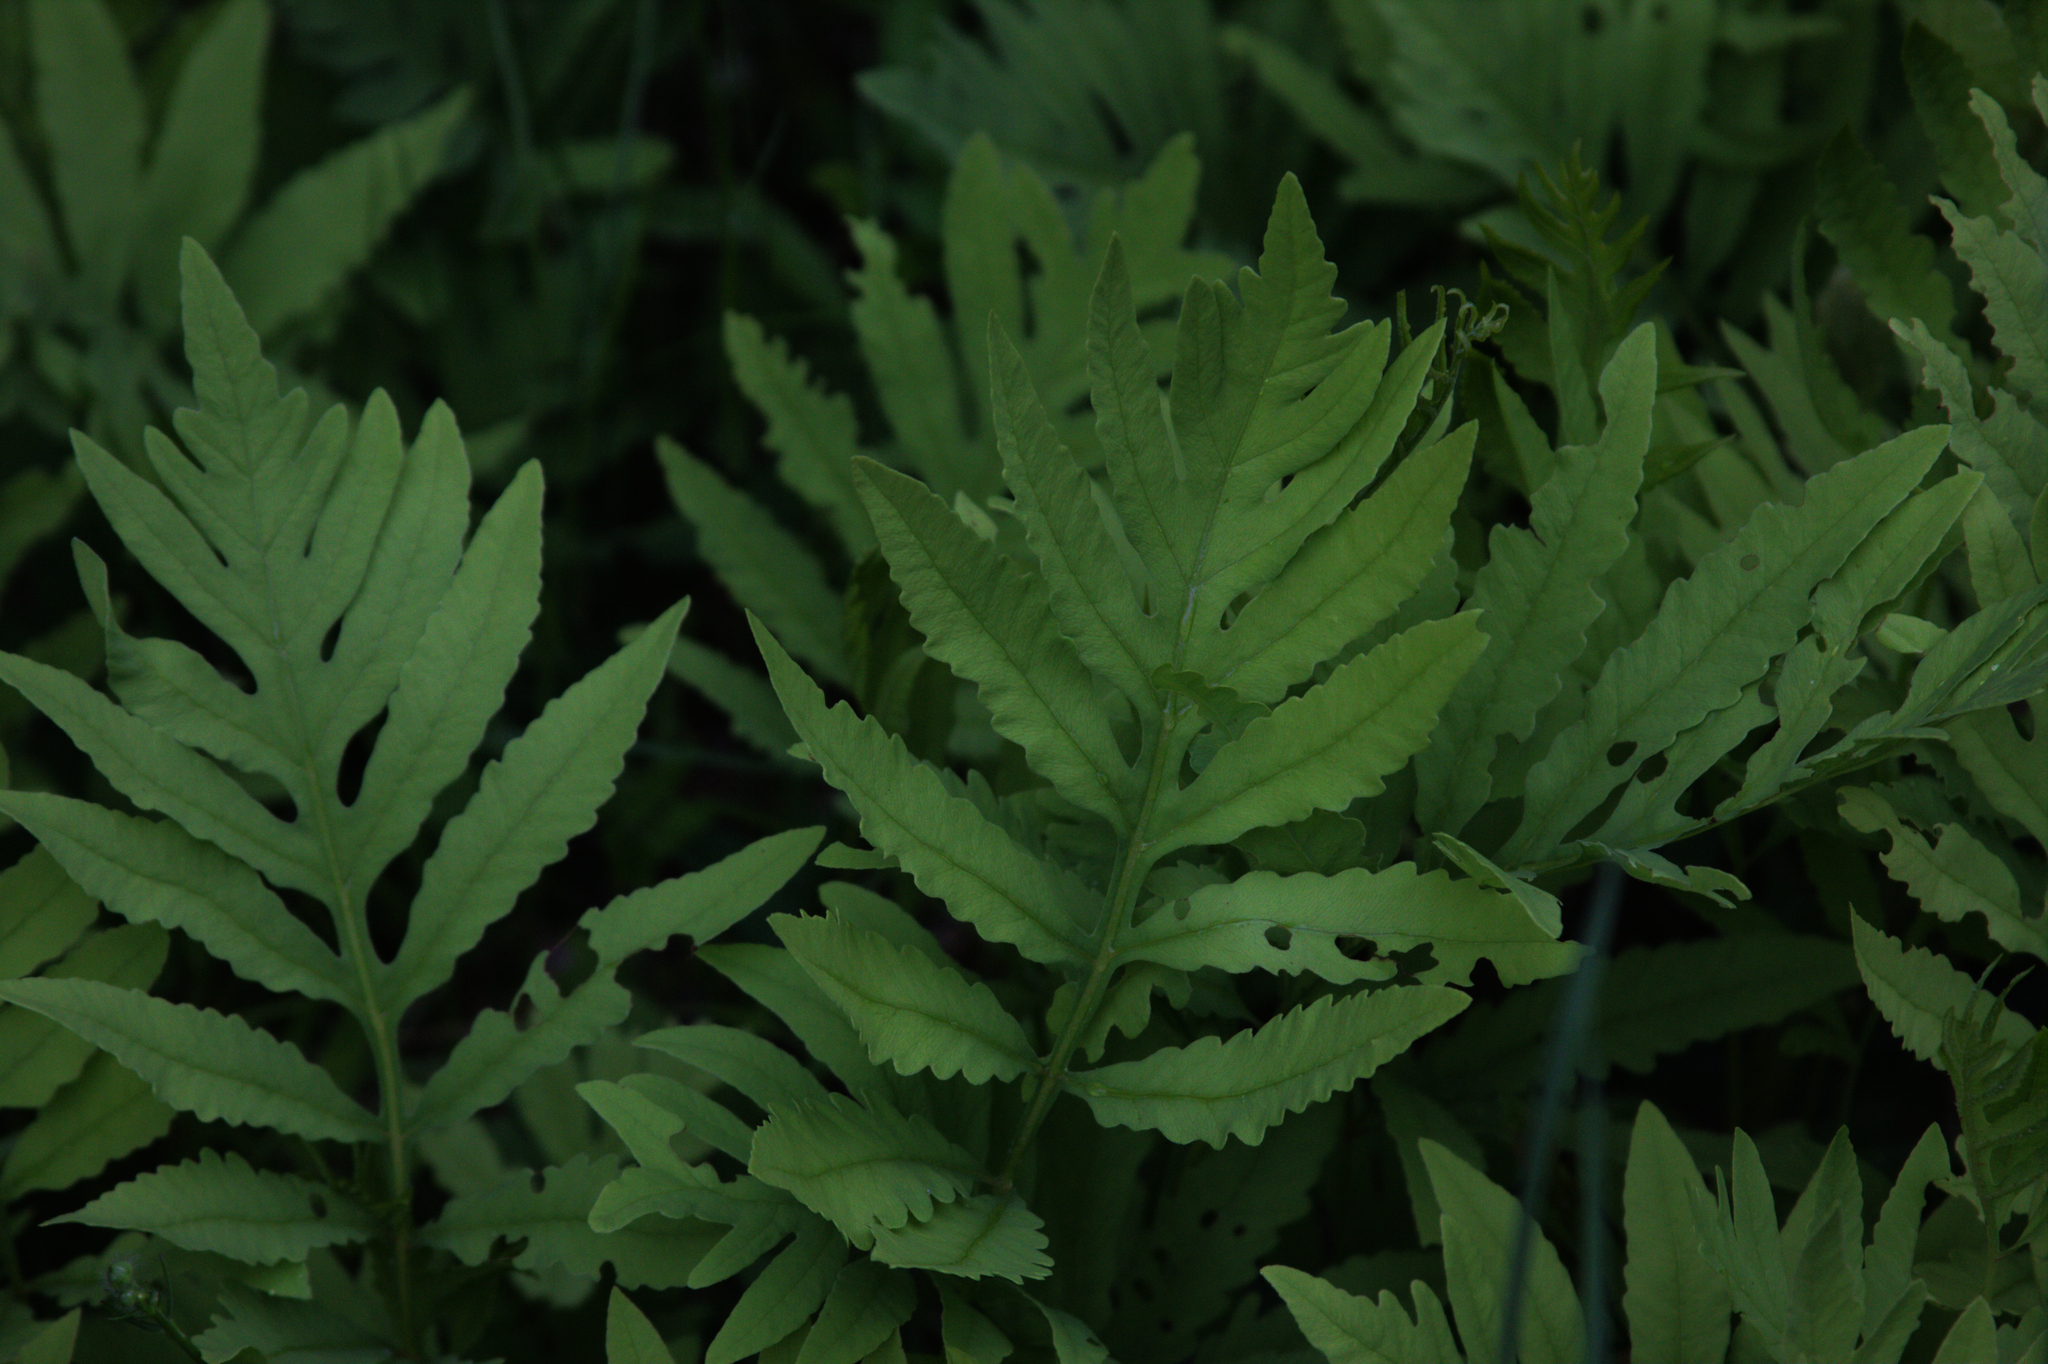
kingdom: Plantae
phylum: Tracheophyta
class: Polypodiopsida
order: Polypodiales
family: Onocleaceae
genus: Onoclea
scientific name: Onoclea sensibilis
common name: Sensitive fern
